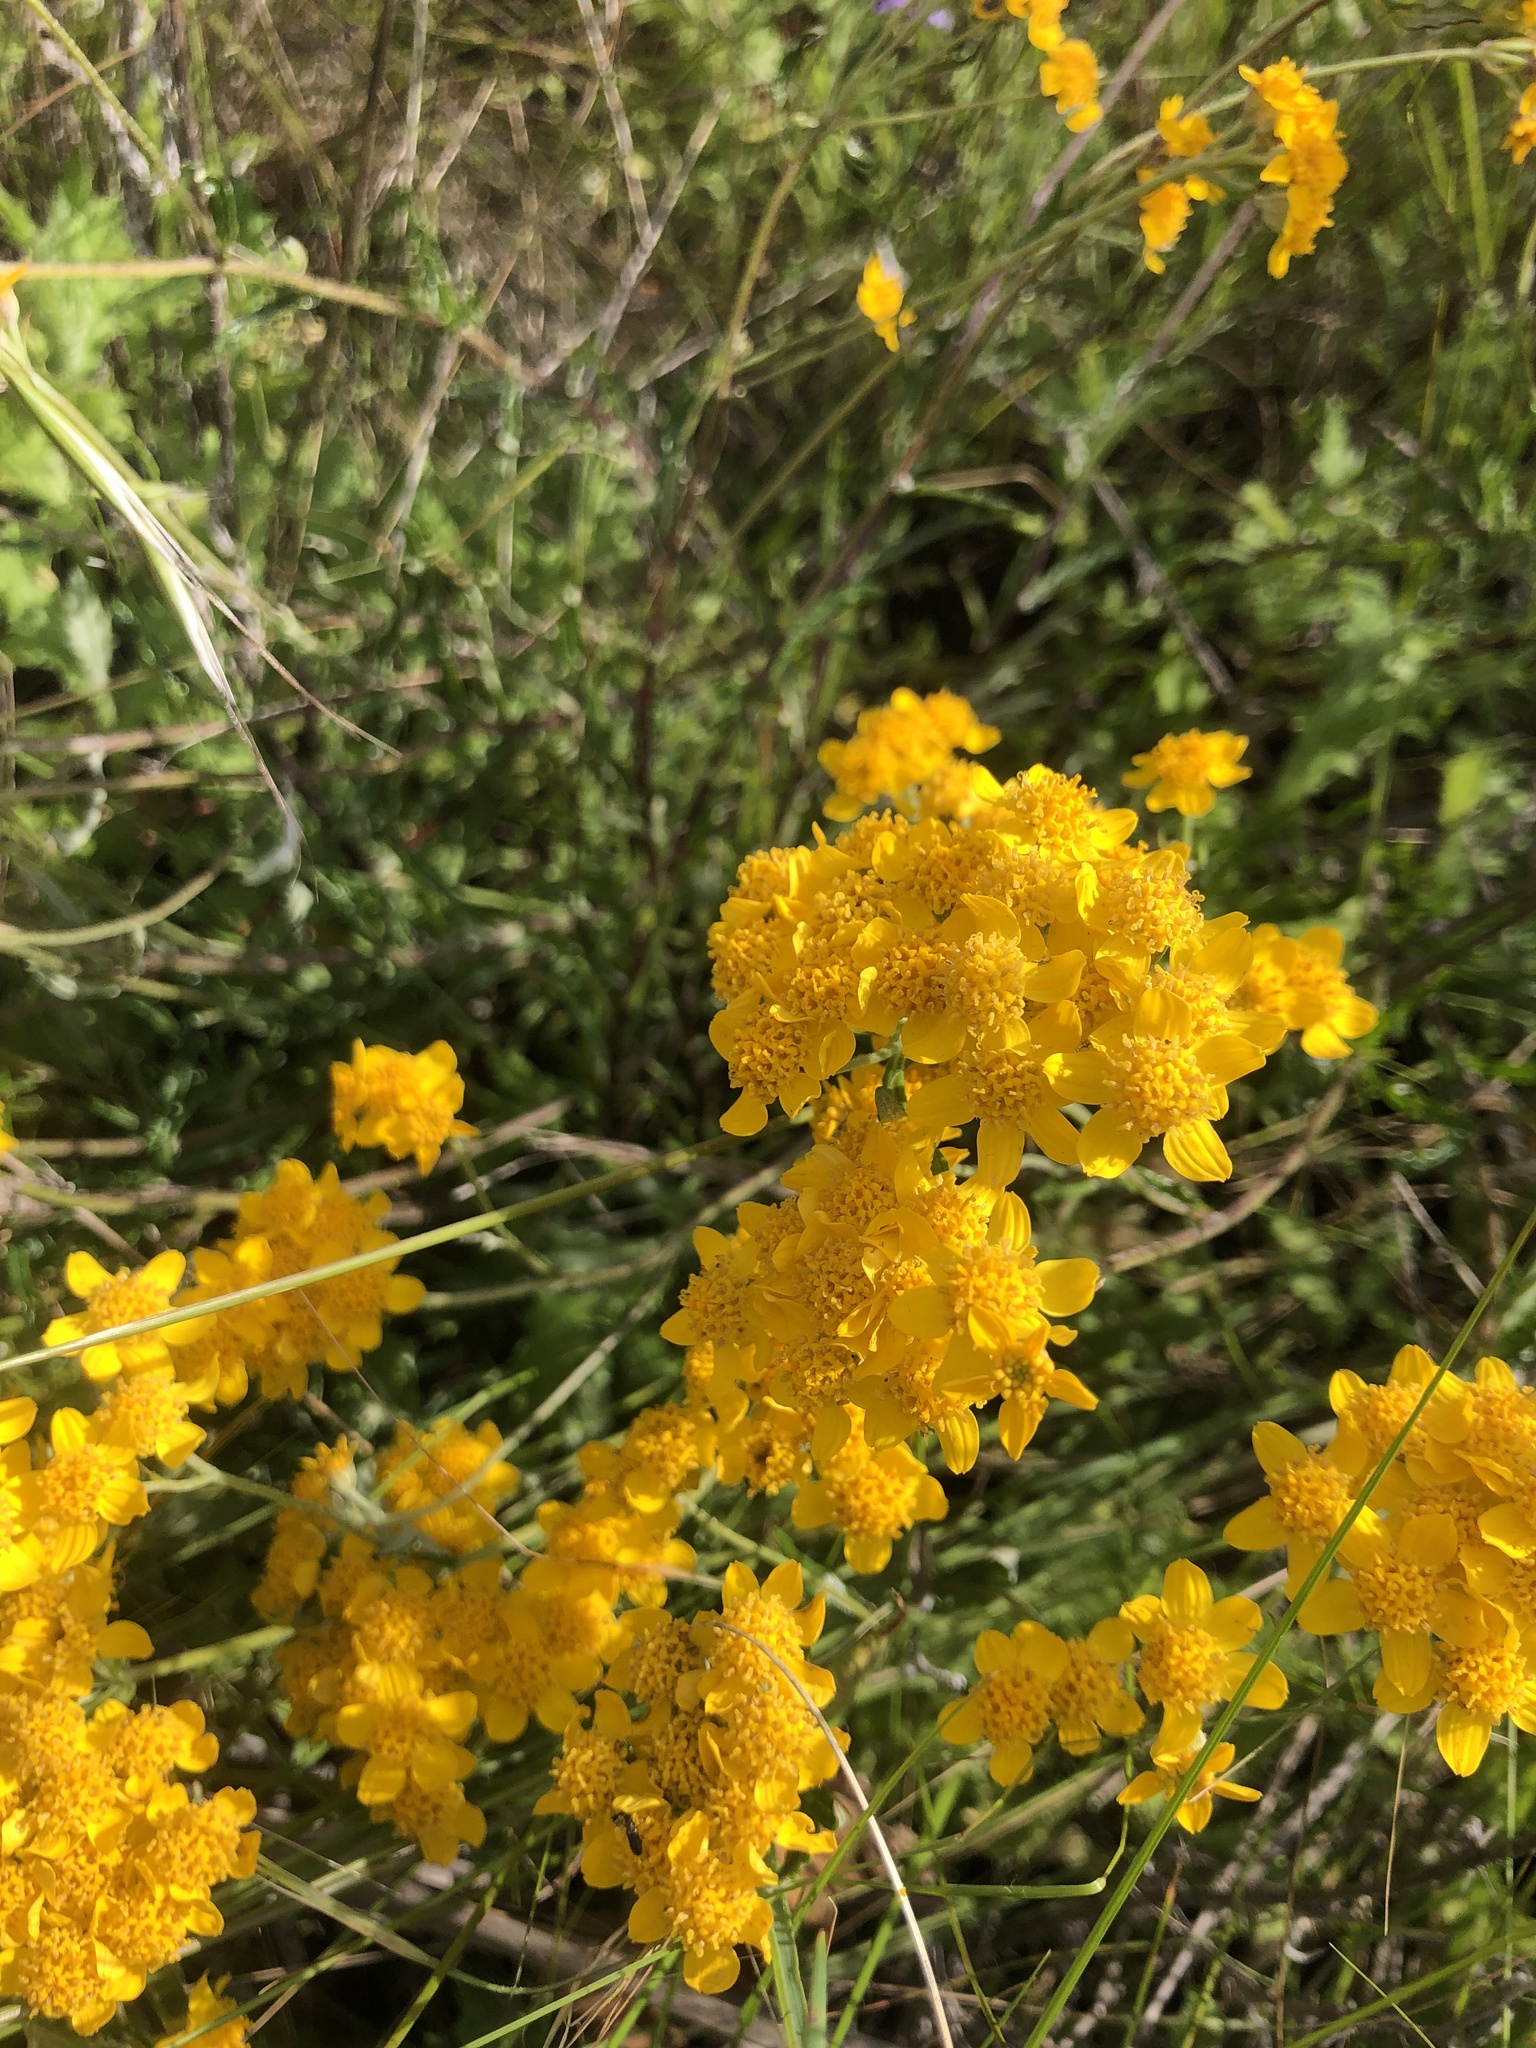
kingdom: Plantae
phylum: Tracheophyta
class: Magnoliopsida
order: Asterales
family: Asteraceae
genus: Eriophyllum
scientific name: Eriophyllum confertiflorum
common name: Golden-yarrow
